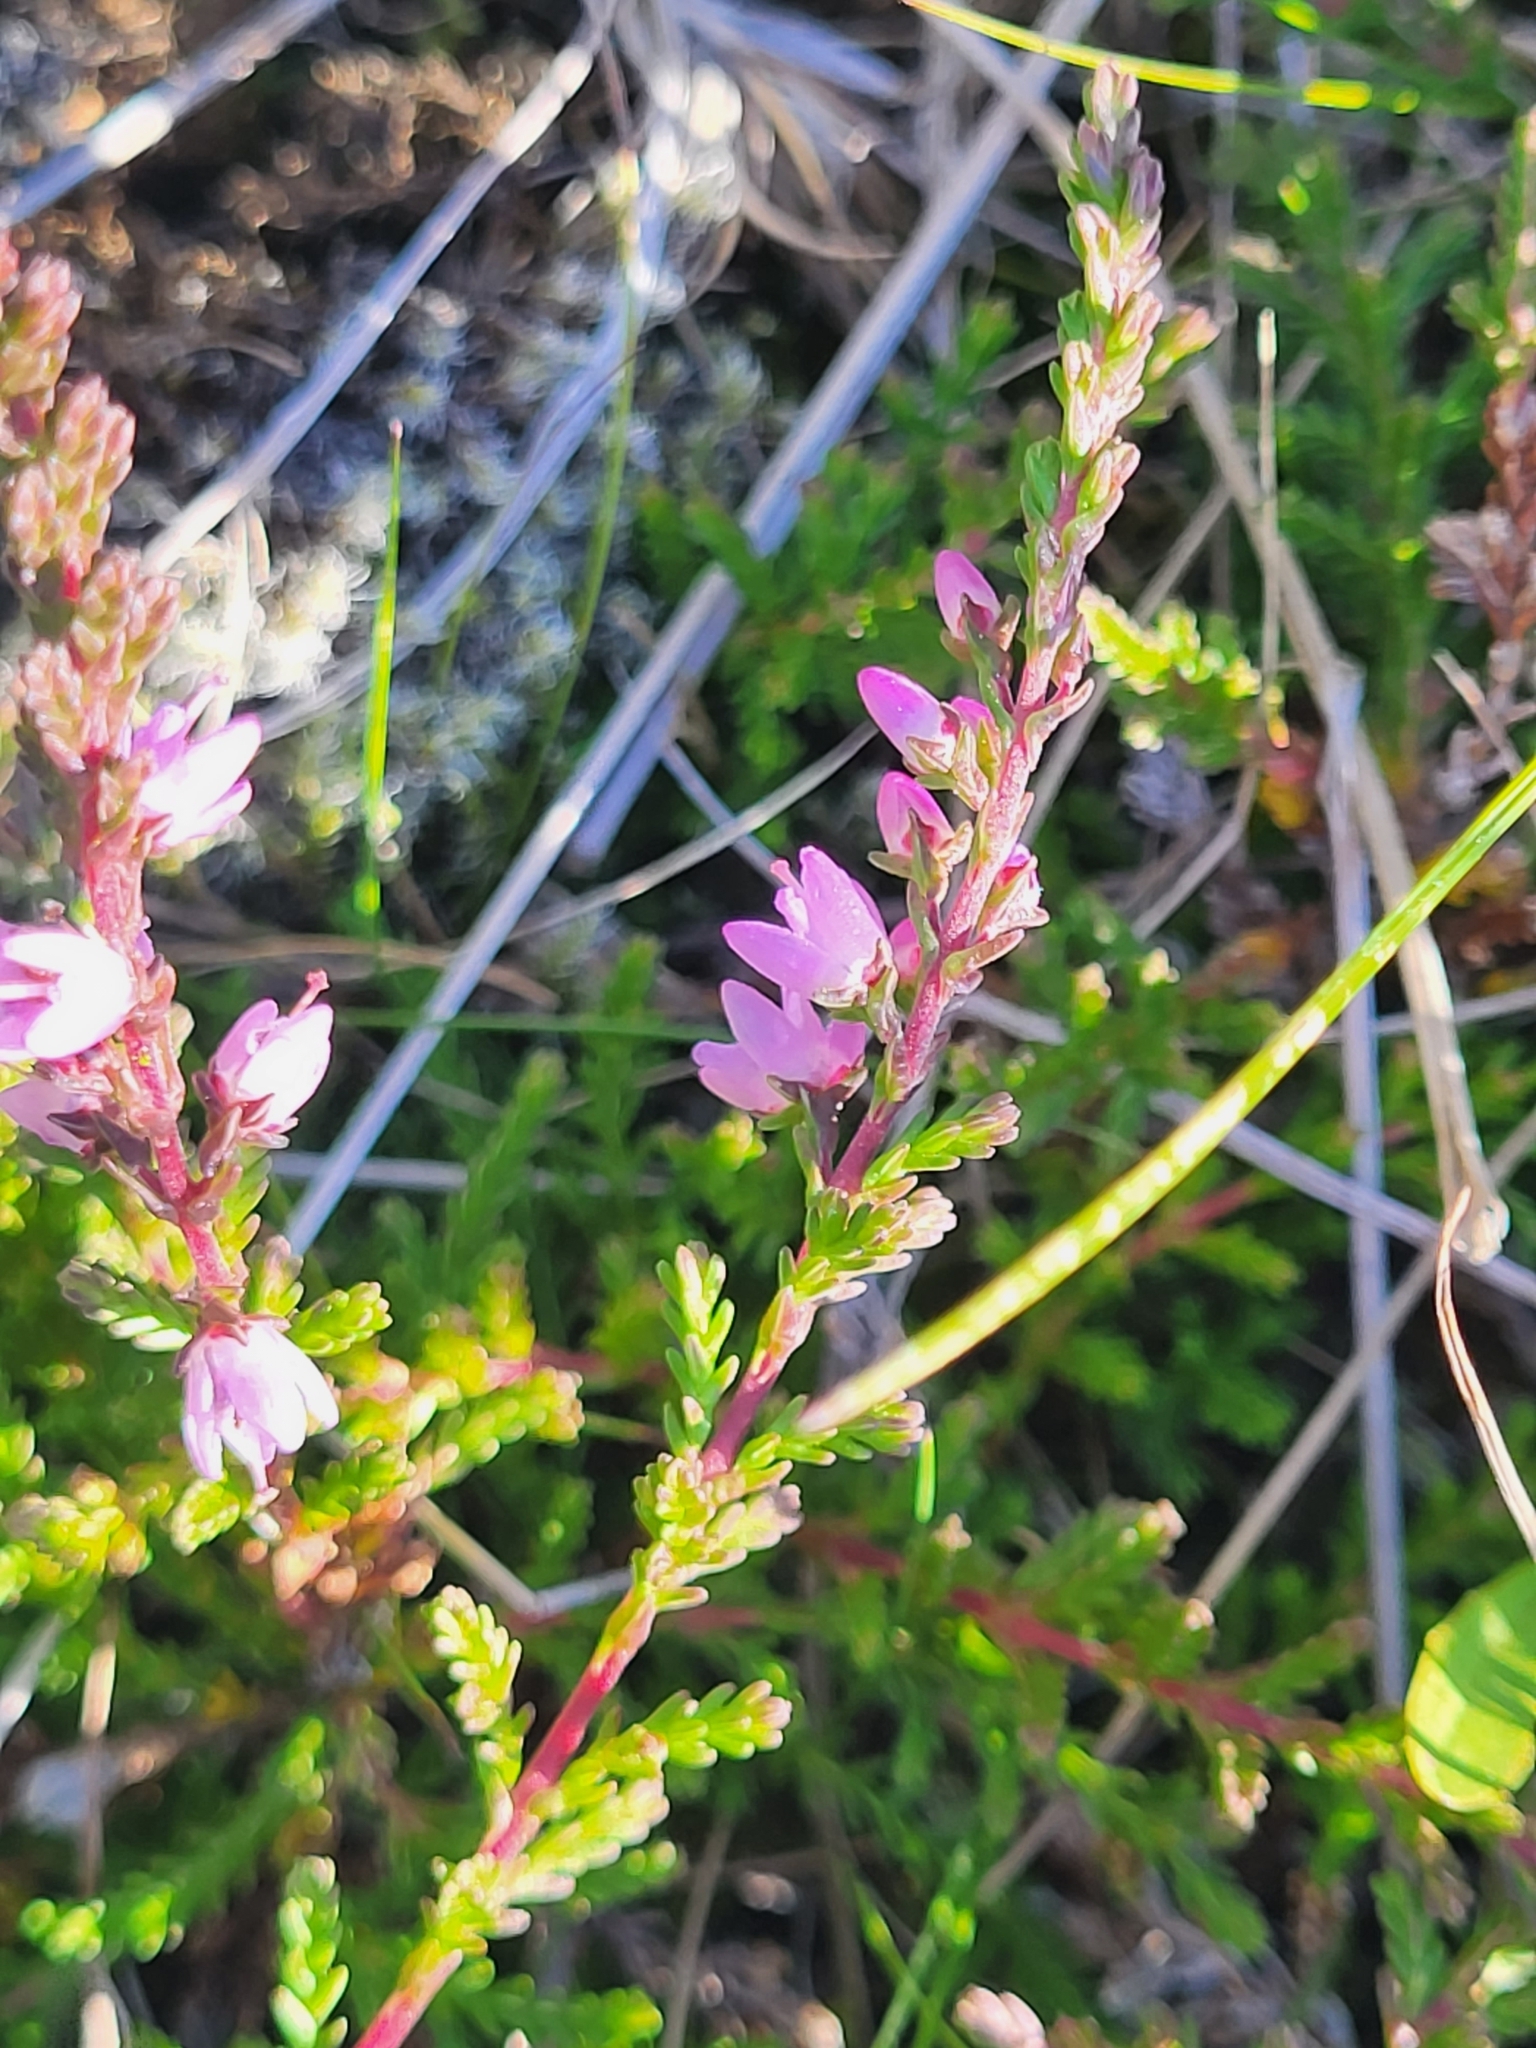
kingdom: Plantae
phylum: Tracheophyta
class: Magnoliopsida
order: Ericales
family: Ericaceae
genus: Calluna
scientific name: Calluna vulgaris
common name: Heather
